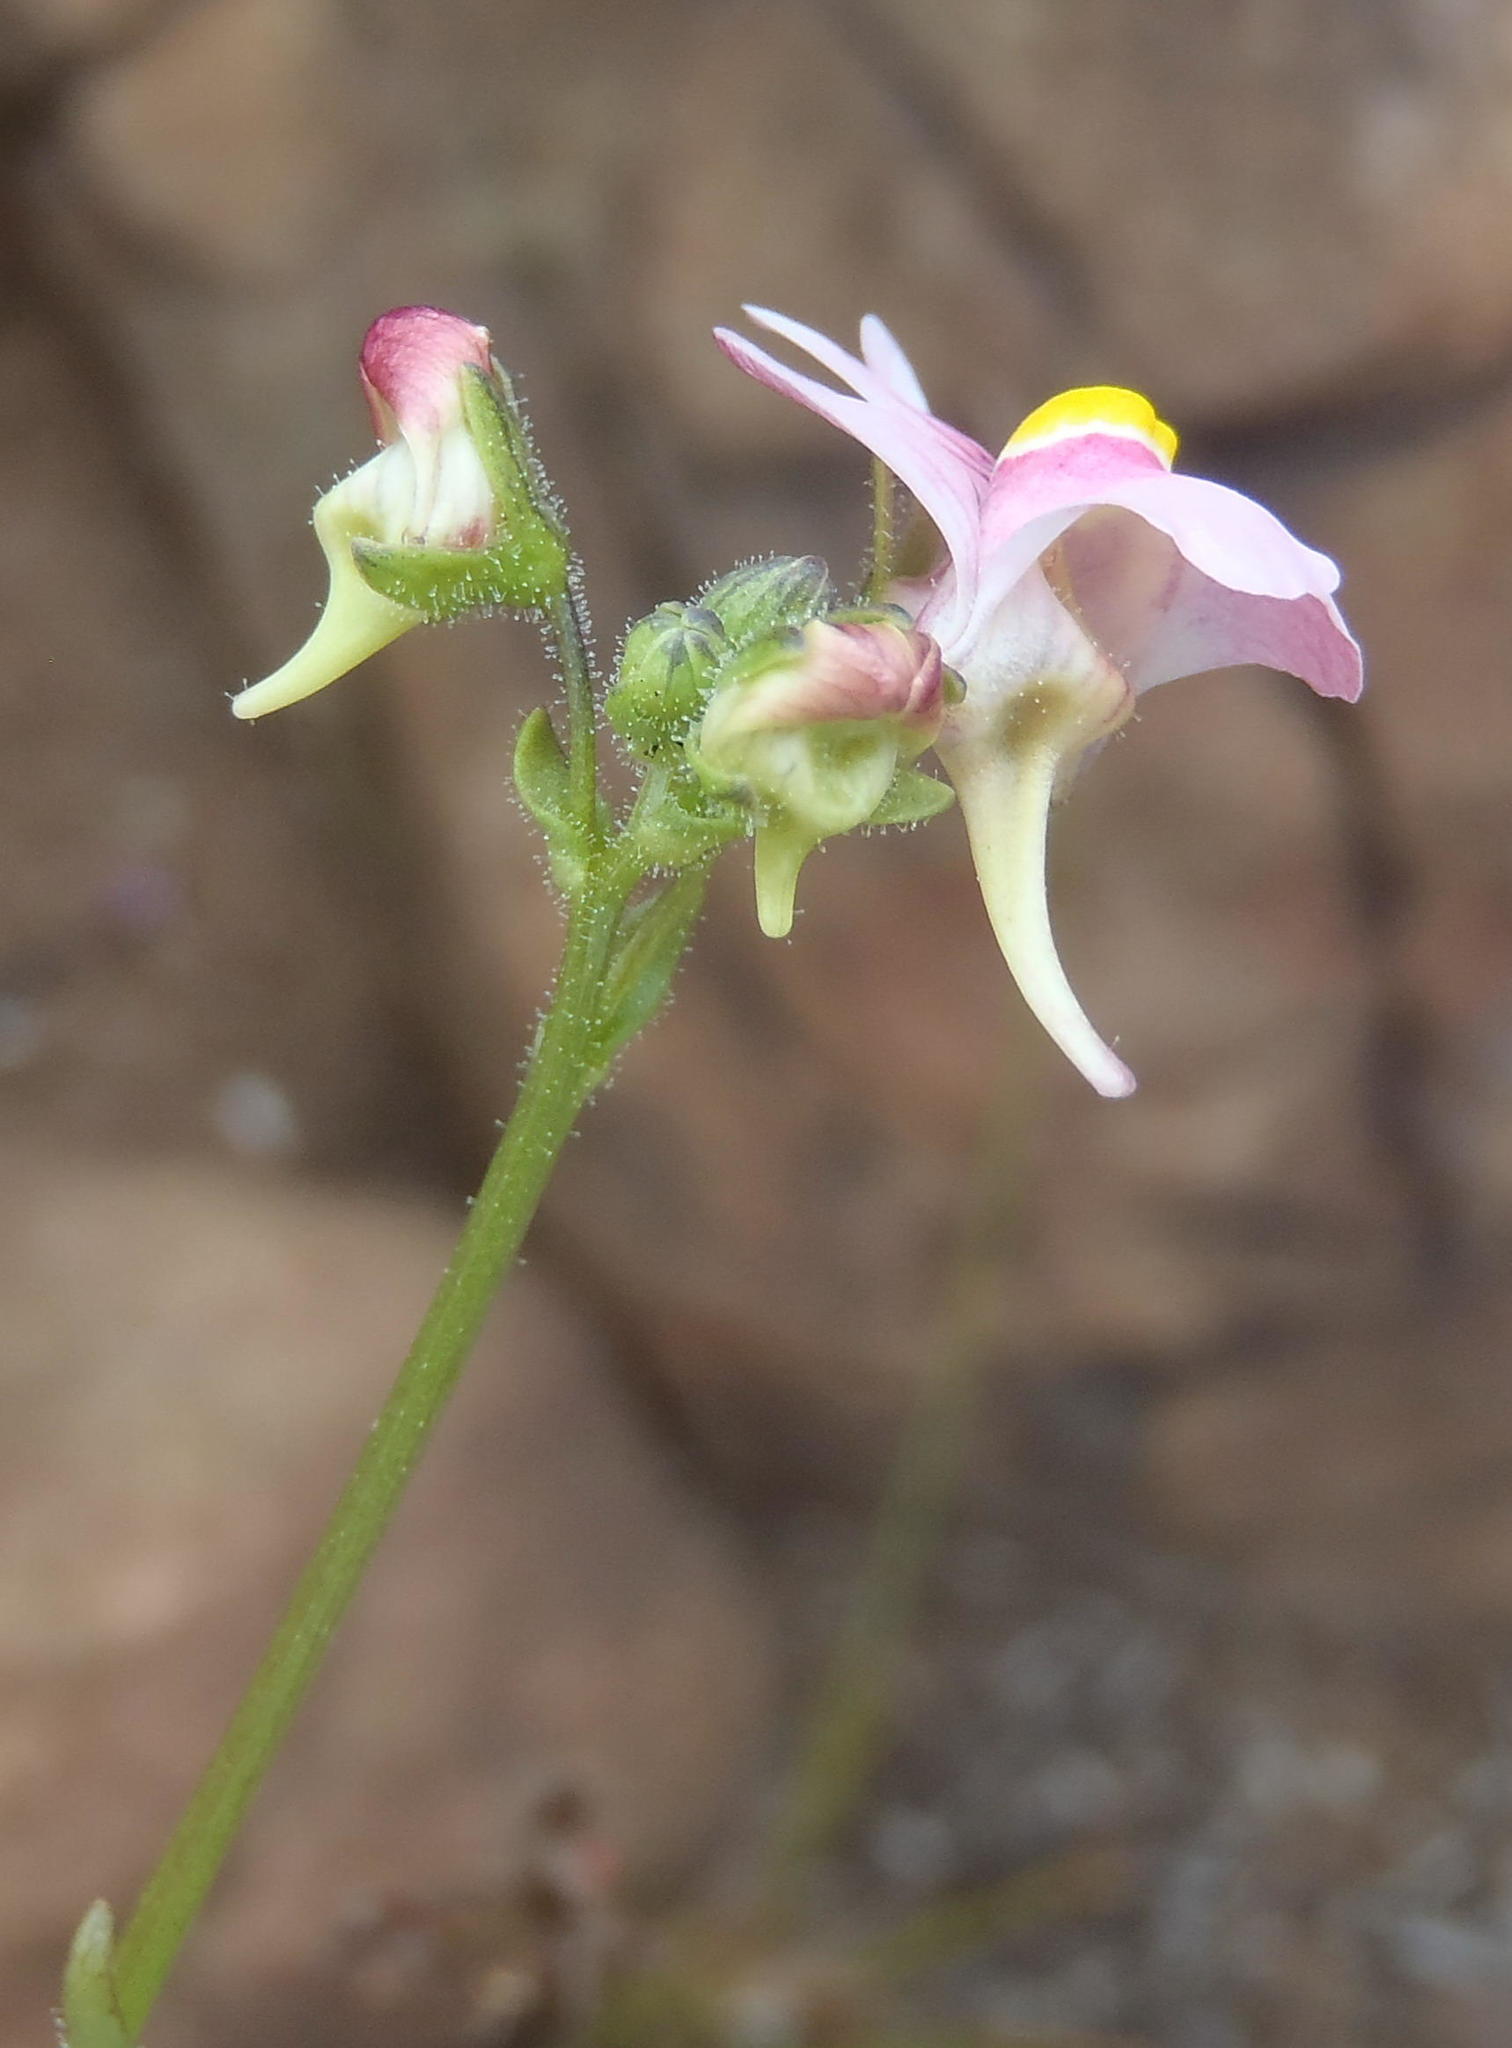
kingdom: Plantae
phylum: Tracheophyta
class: Magnoliopsida
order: Lamiales
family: Scrophulariaceae
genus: Nemesia
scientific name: Nemesia fruticans
